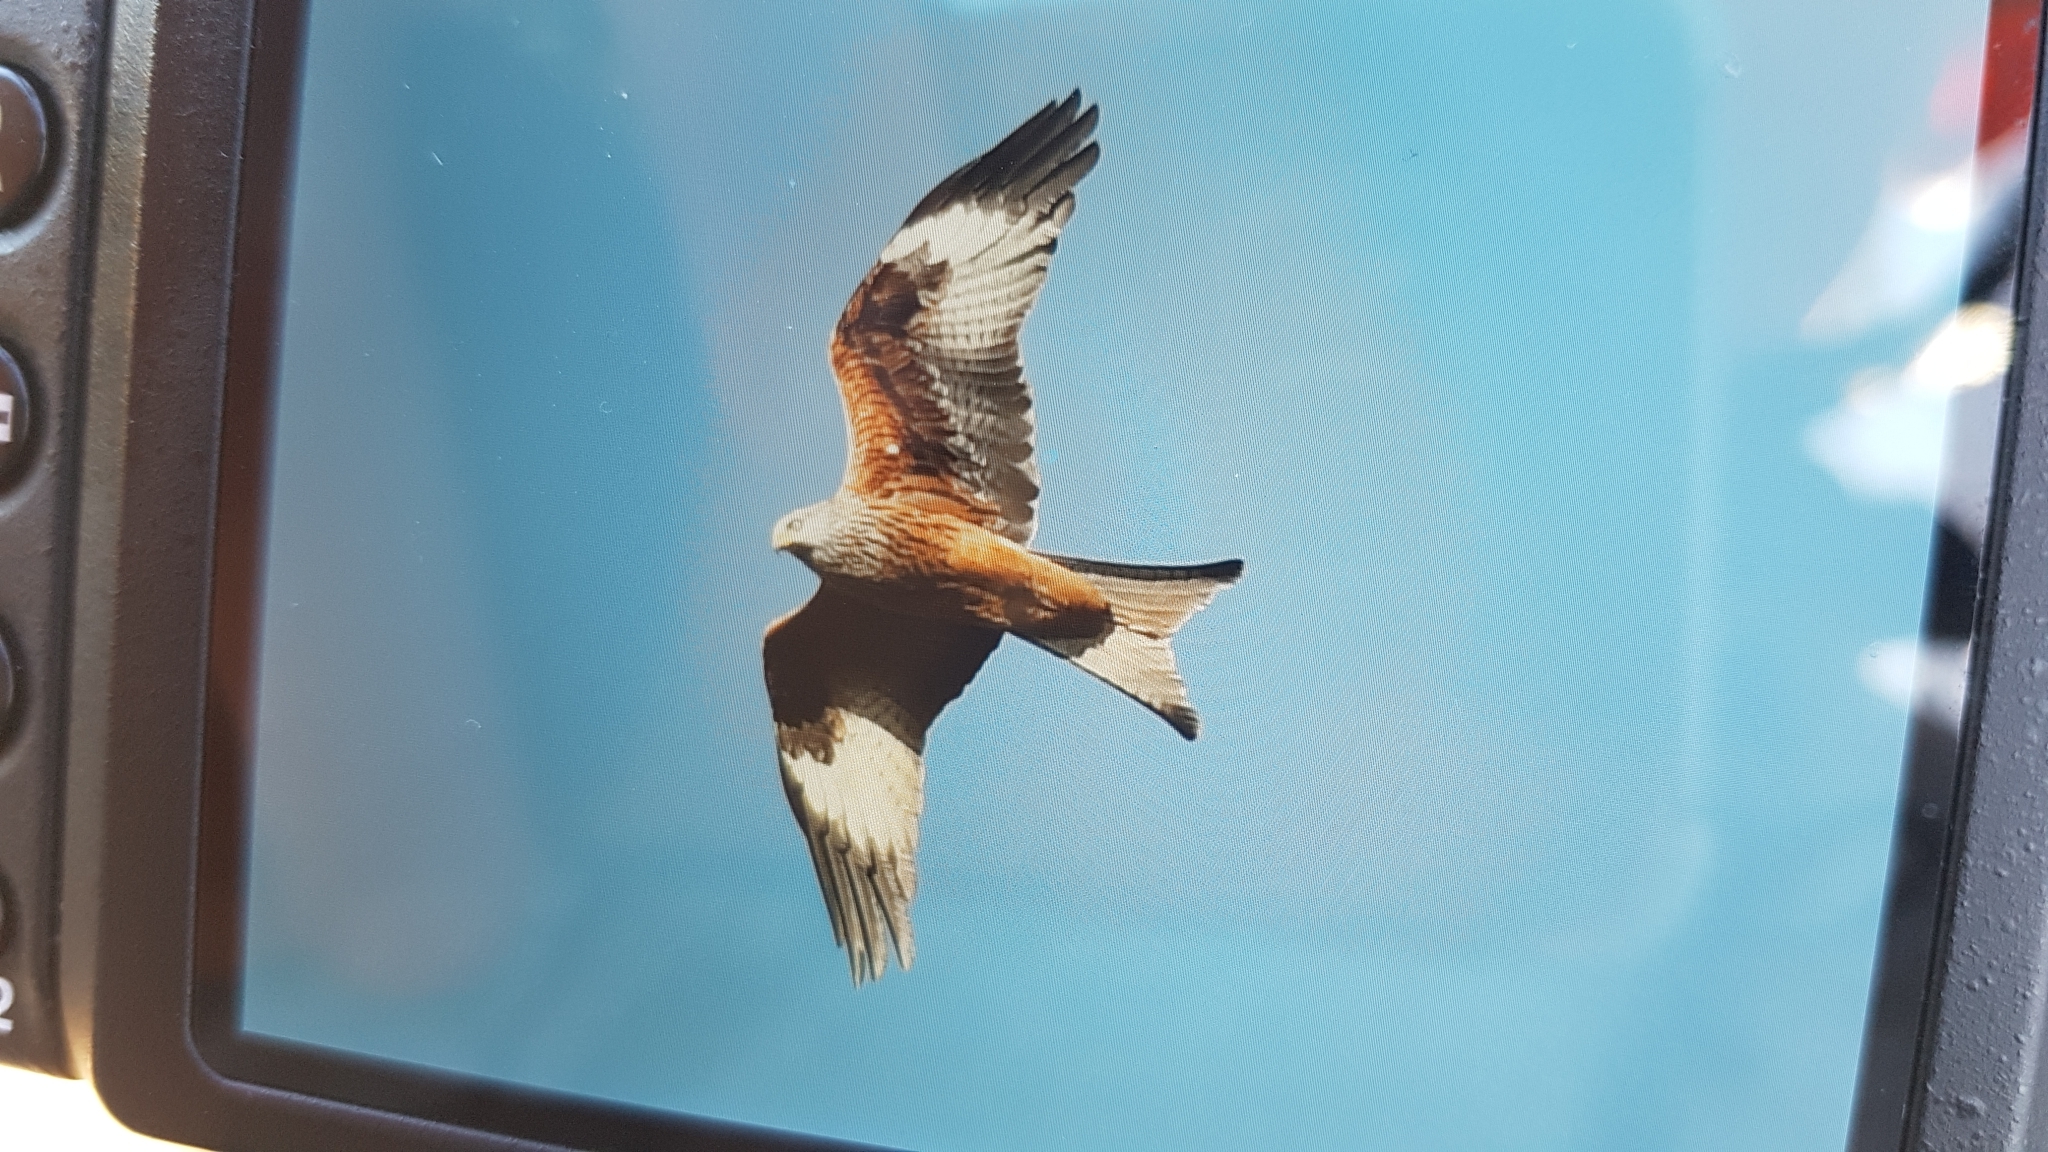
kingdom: Animalia
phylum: Chordata
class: Aves
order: Accipitriformes
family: Accipitridae
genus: Milvus
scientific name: Milvus milvus
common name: Red kite
